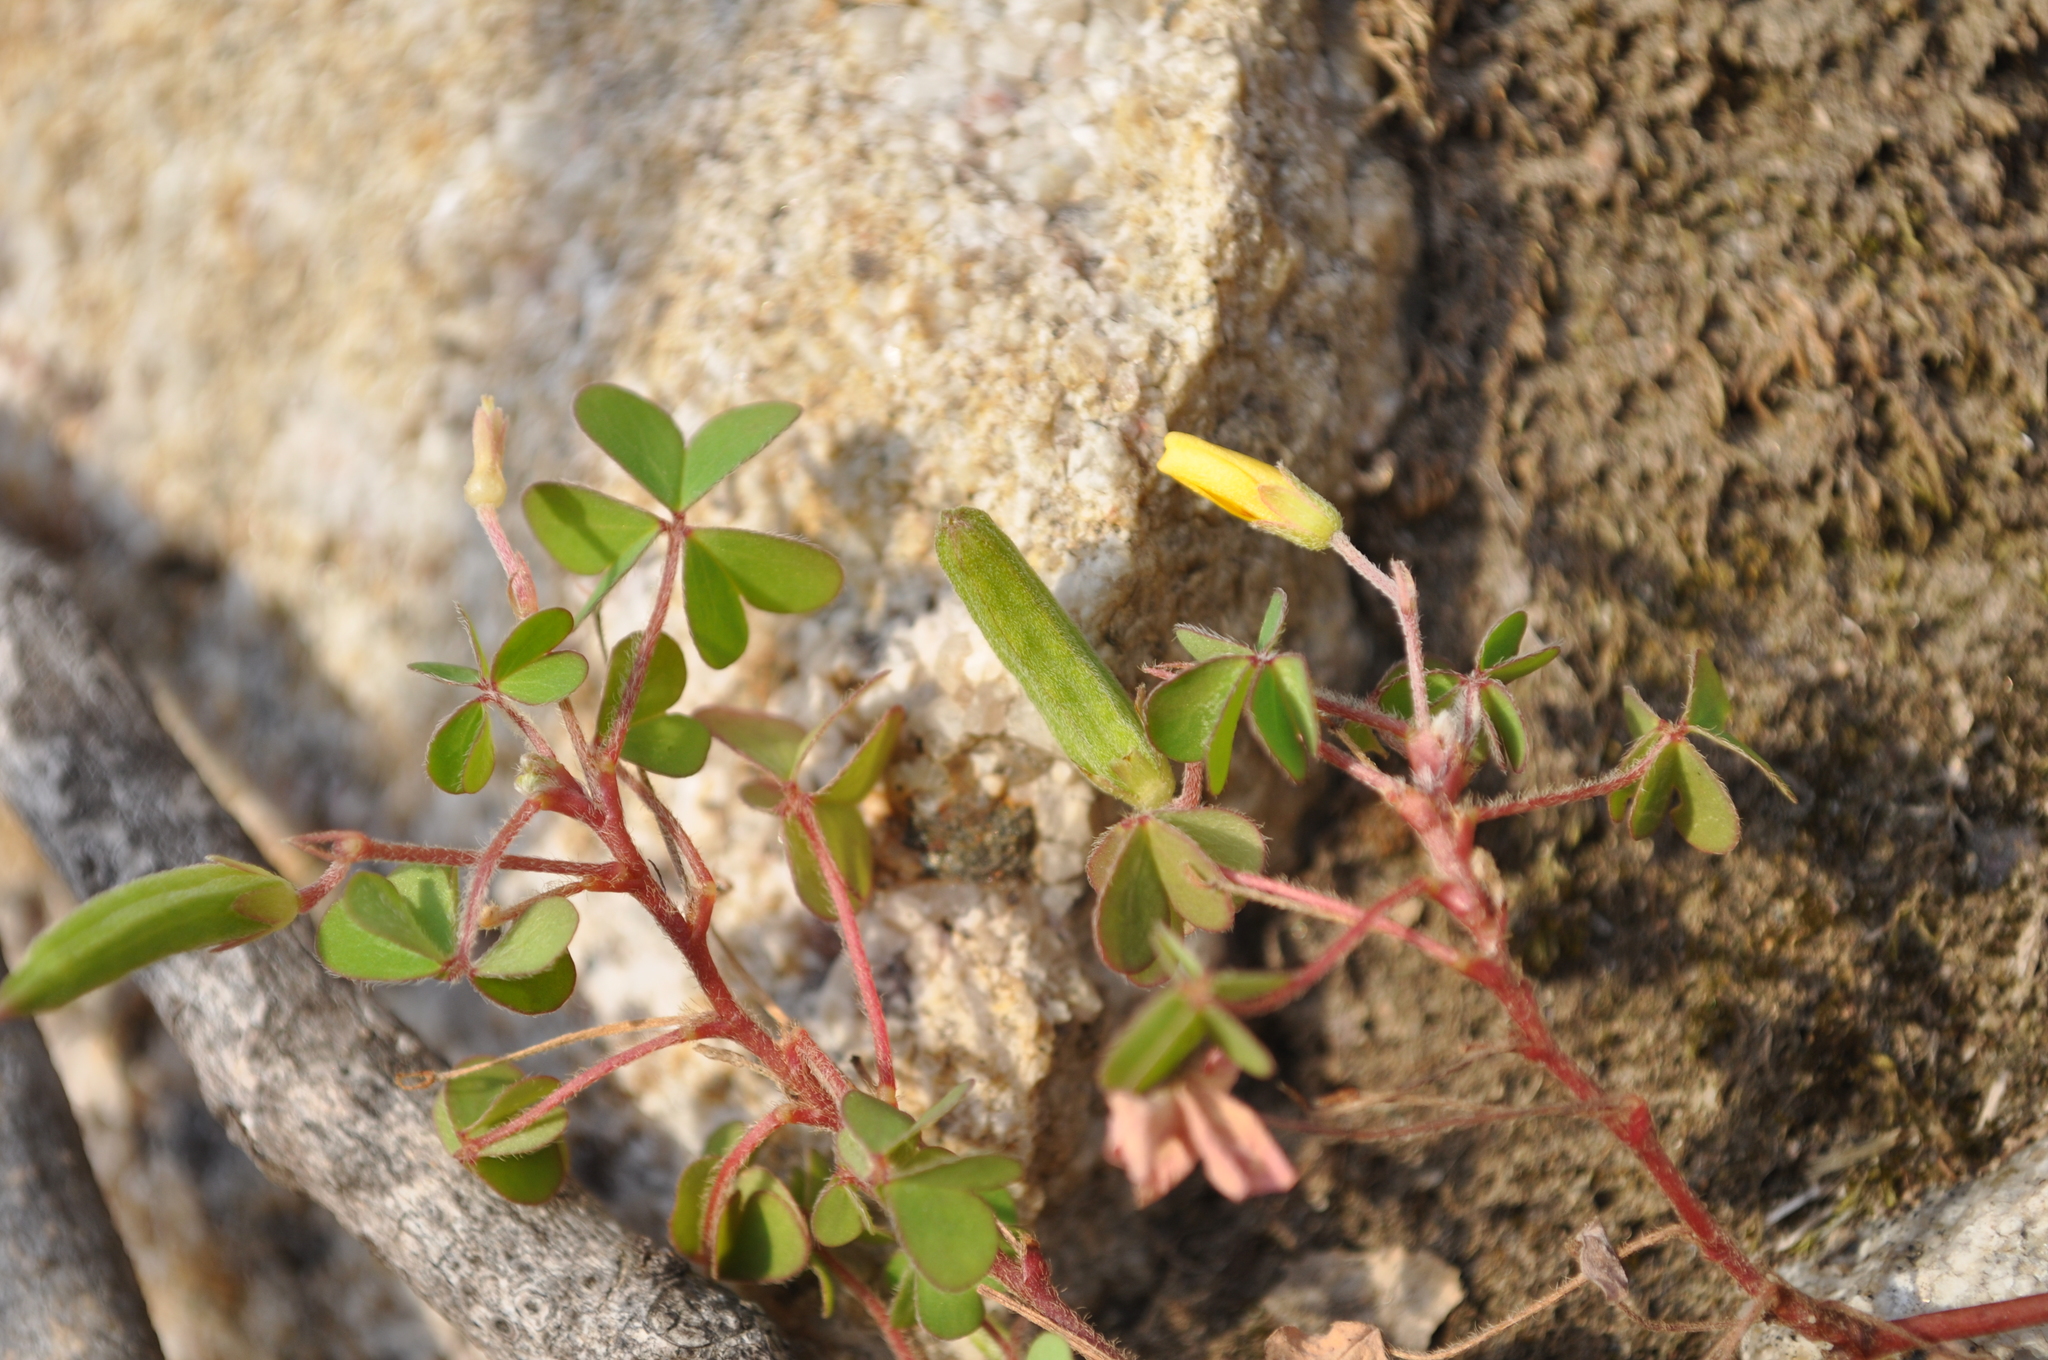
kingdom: Plantae
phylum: Tracheophyta
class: Magnoliopsida
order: Oxalidales
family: Oxalidaceae
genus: Oxalis
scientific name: Oxalis corniculata
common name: Procumbent yellow-sorrel
